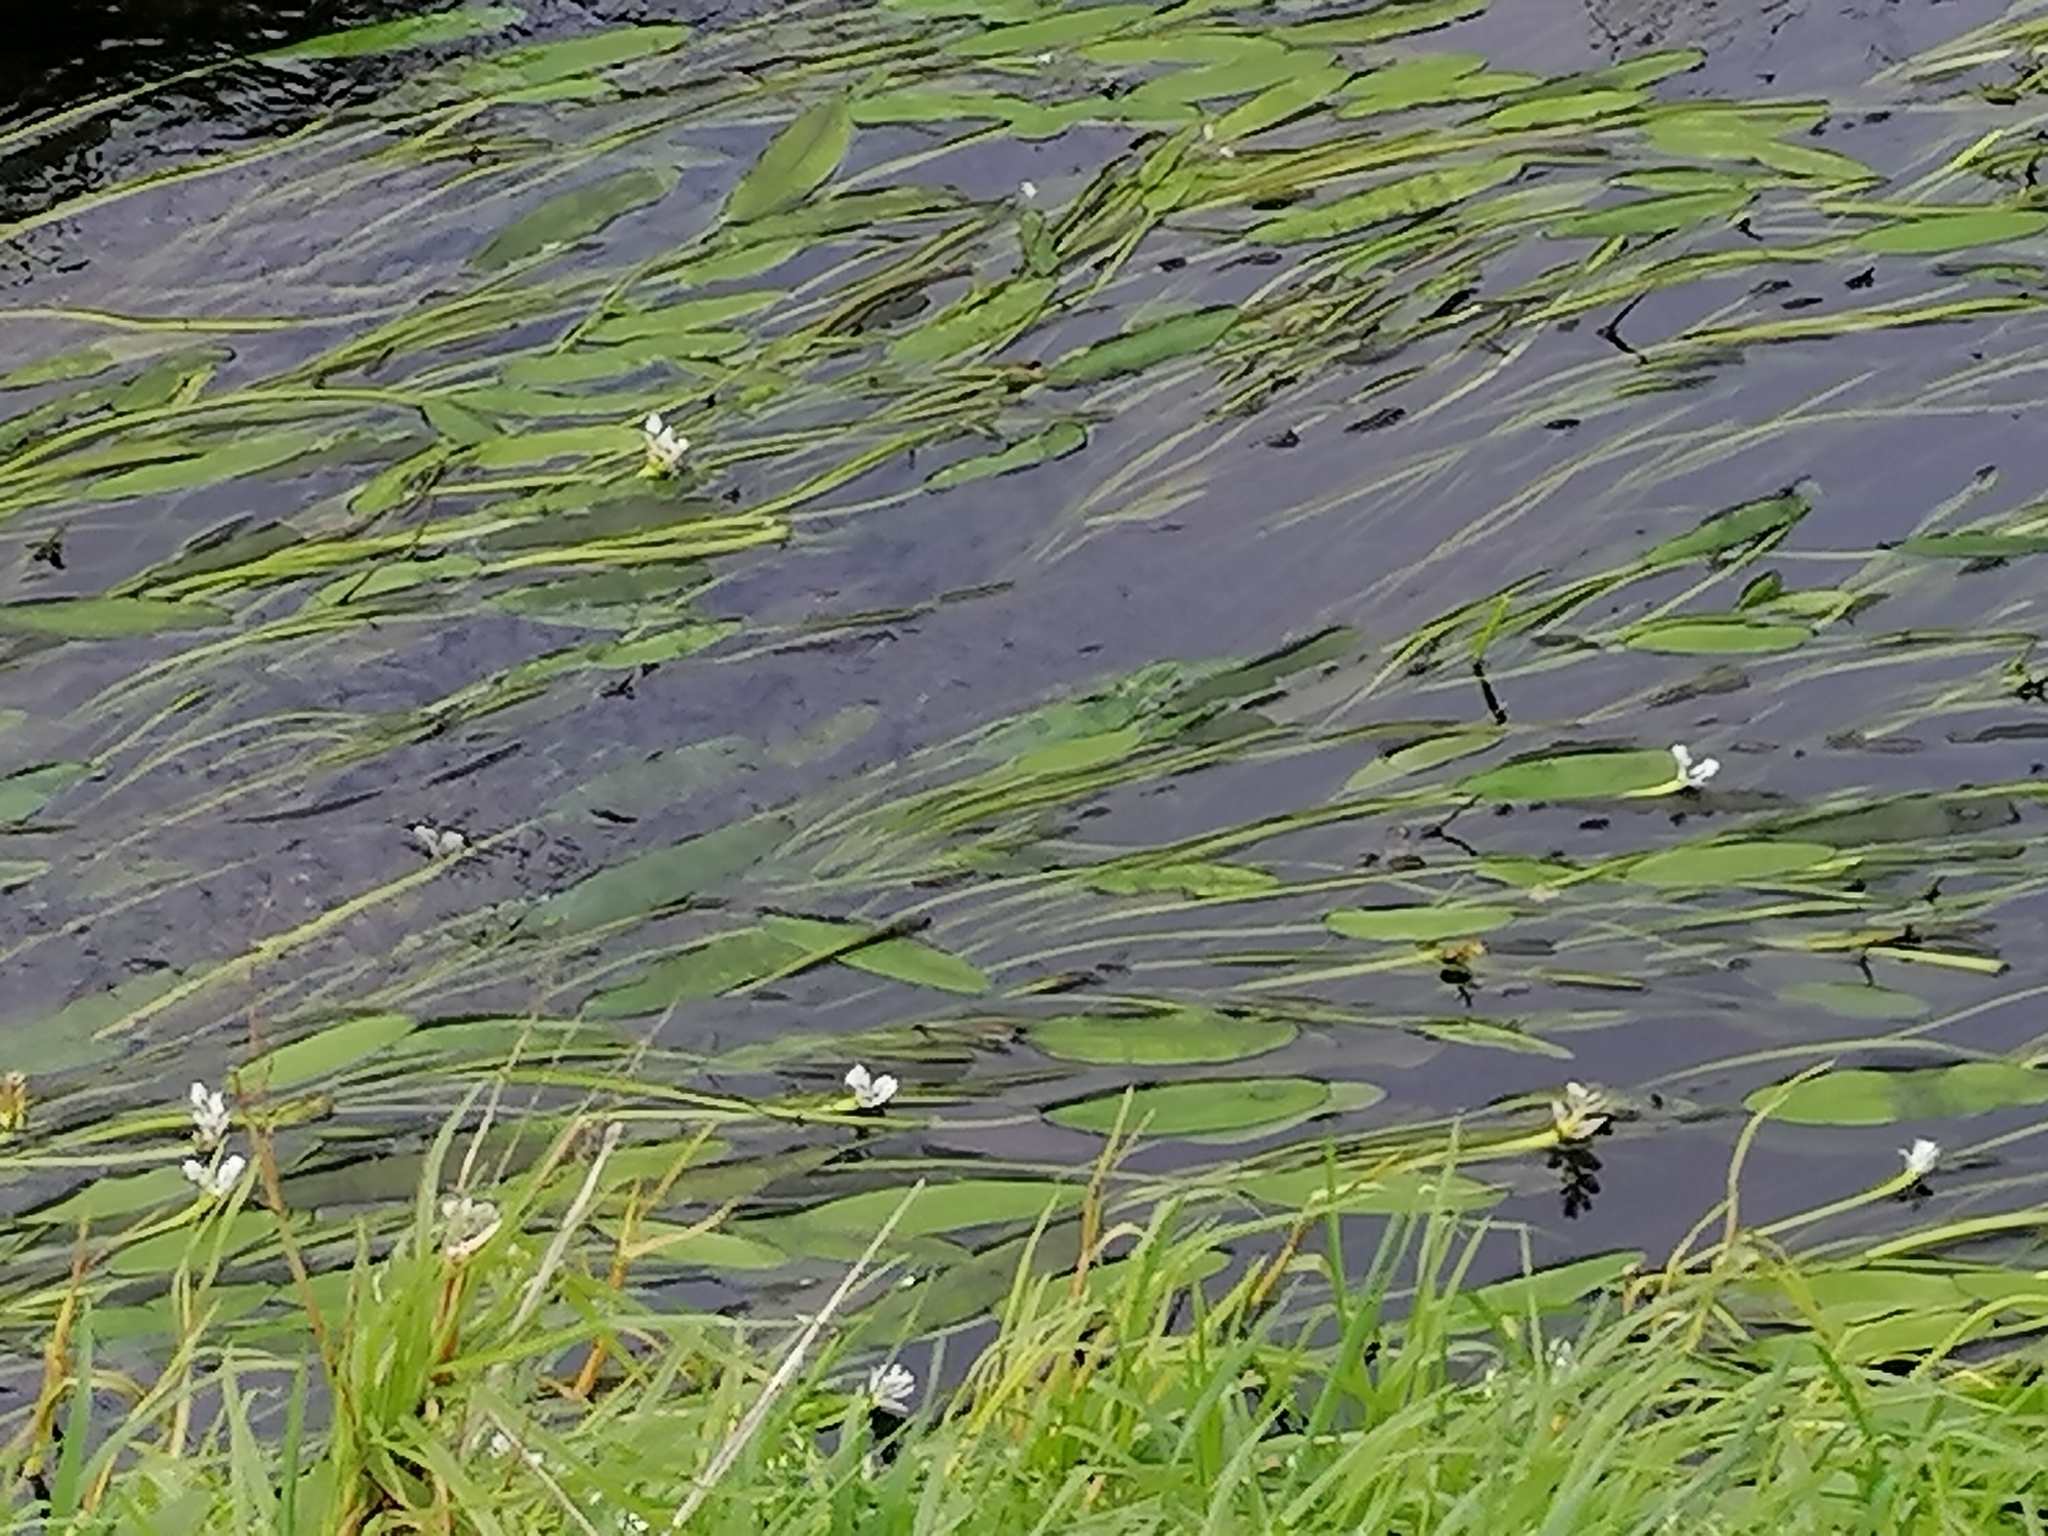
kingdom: Plantae
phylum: Tracheophyta
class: Liliopsida
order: Alismatales
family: Aponogetonaceae
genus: Aponogeton
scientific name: Aponogeton distachyos
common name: Cape-pondweed
